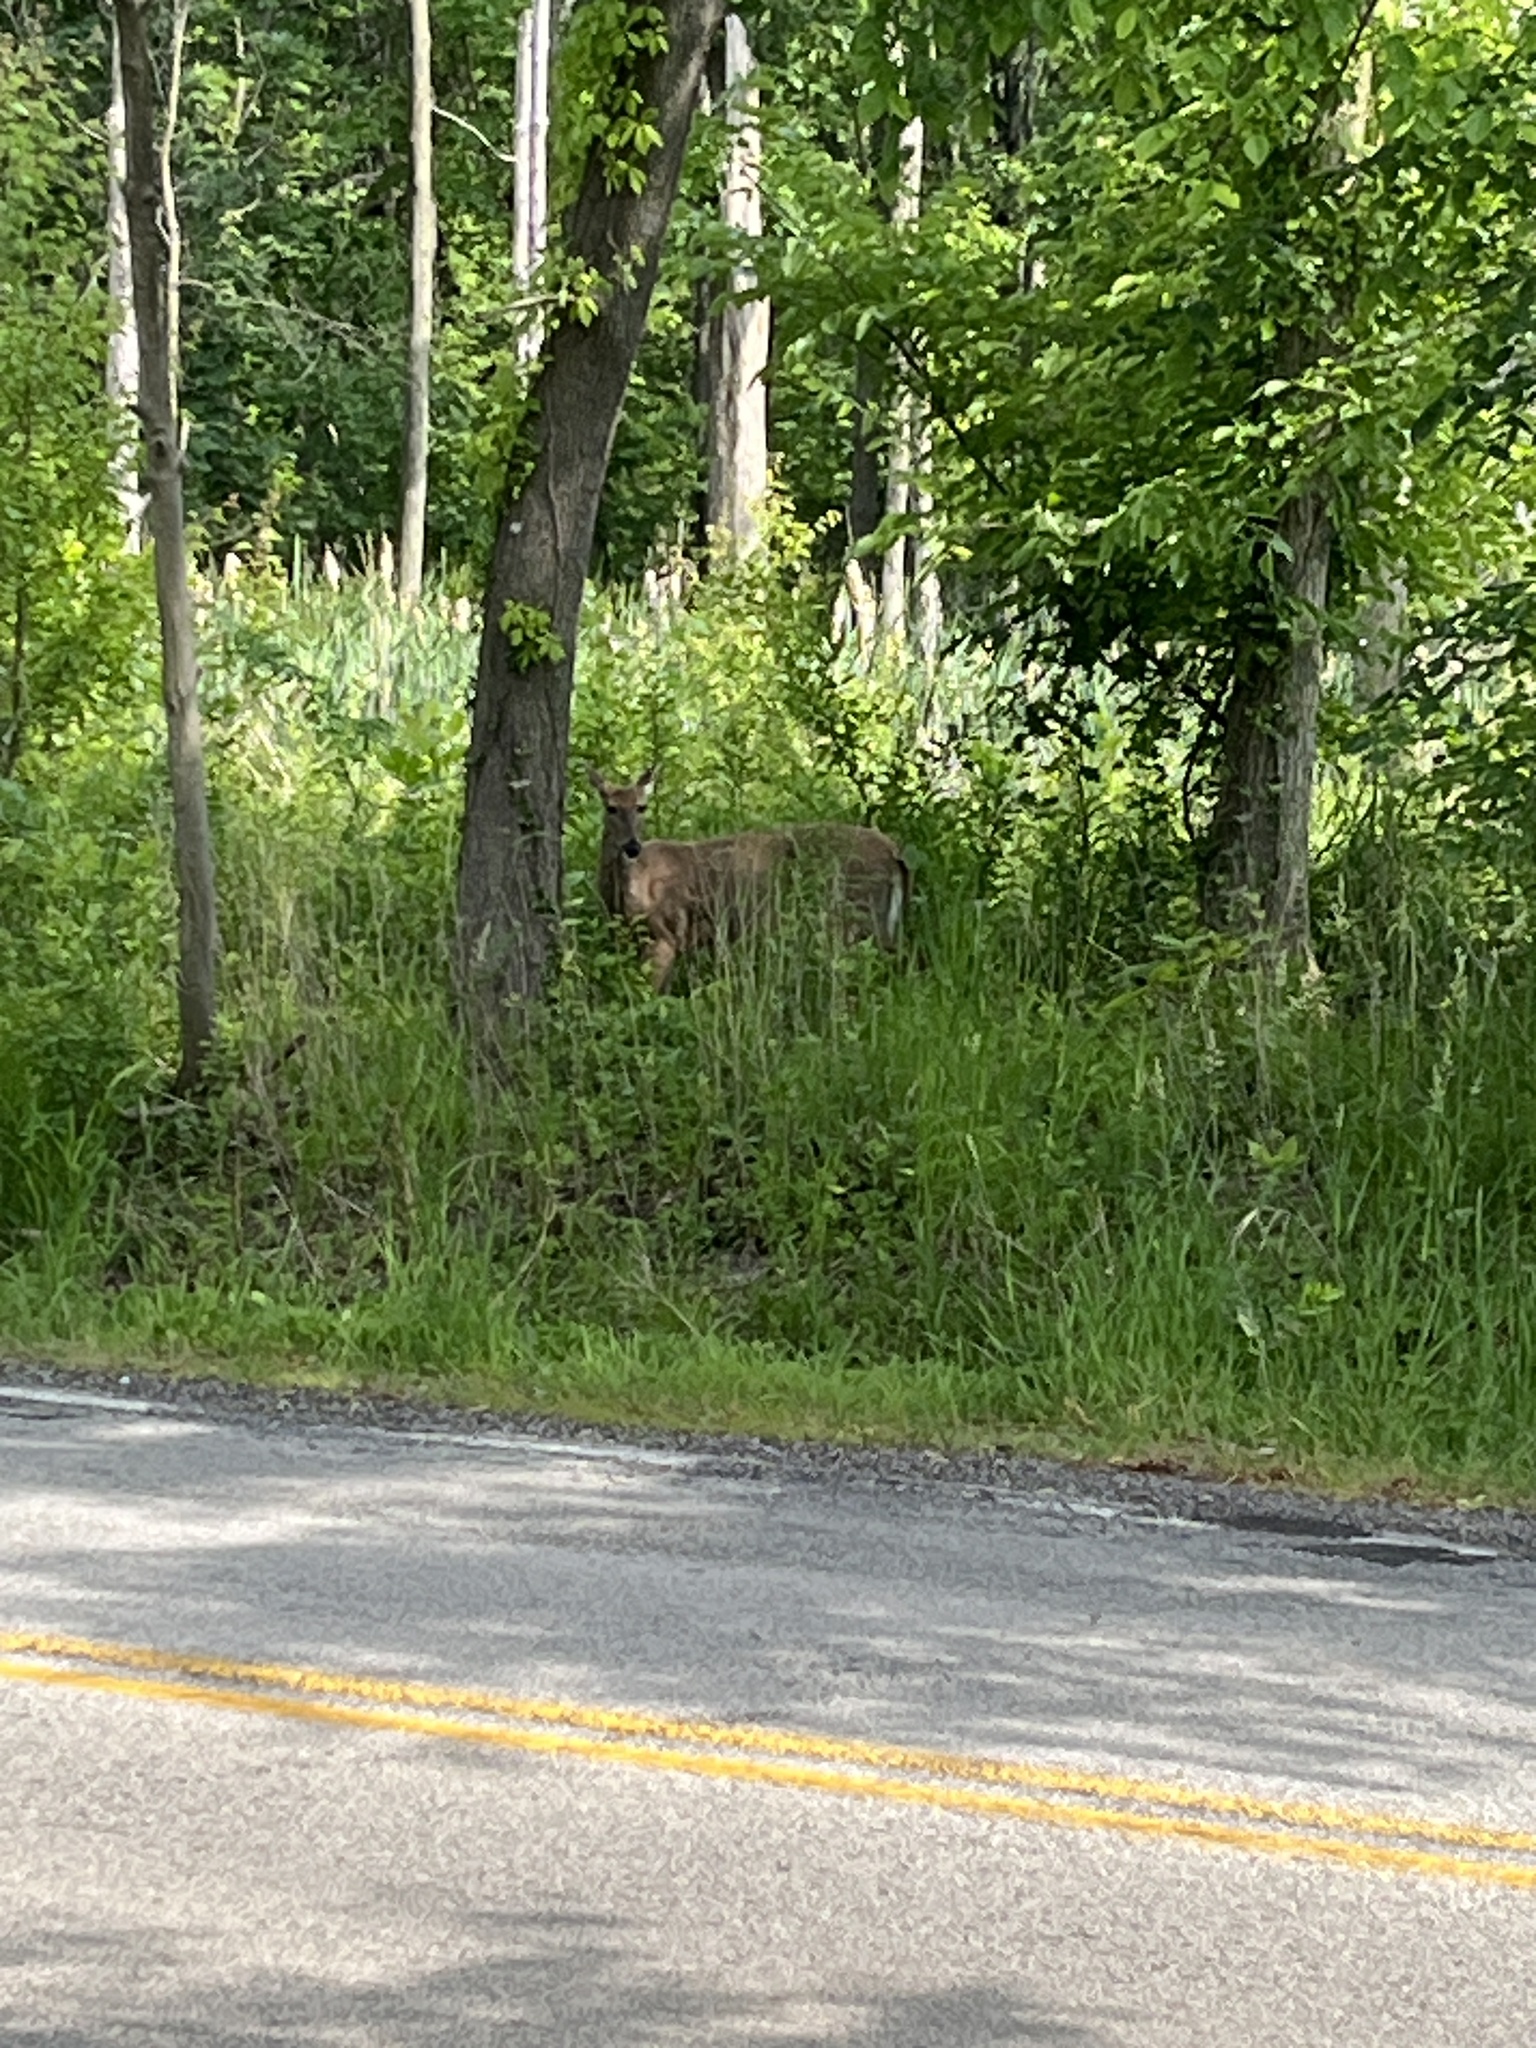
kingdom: Animalia
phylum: Chordata
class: Mammalia
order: Artiodactyla
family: Cervidae
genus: Odocoileus
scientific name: Odocoileus virginianus
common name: White-tailed deer
